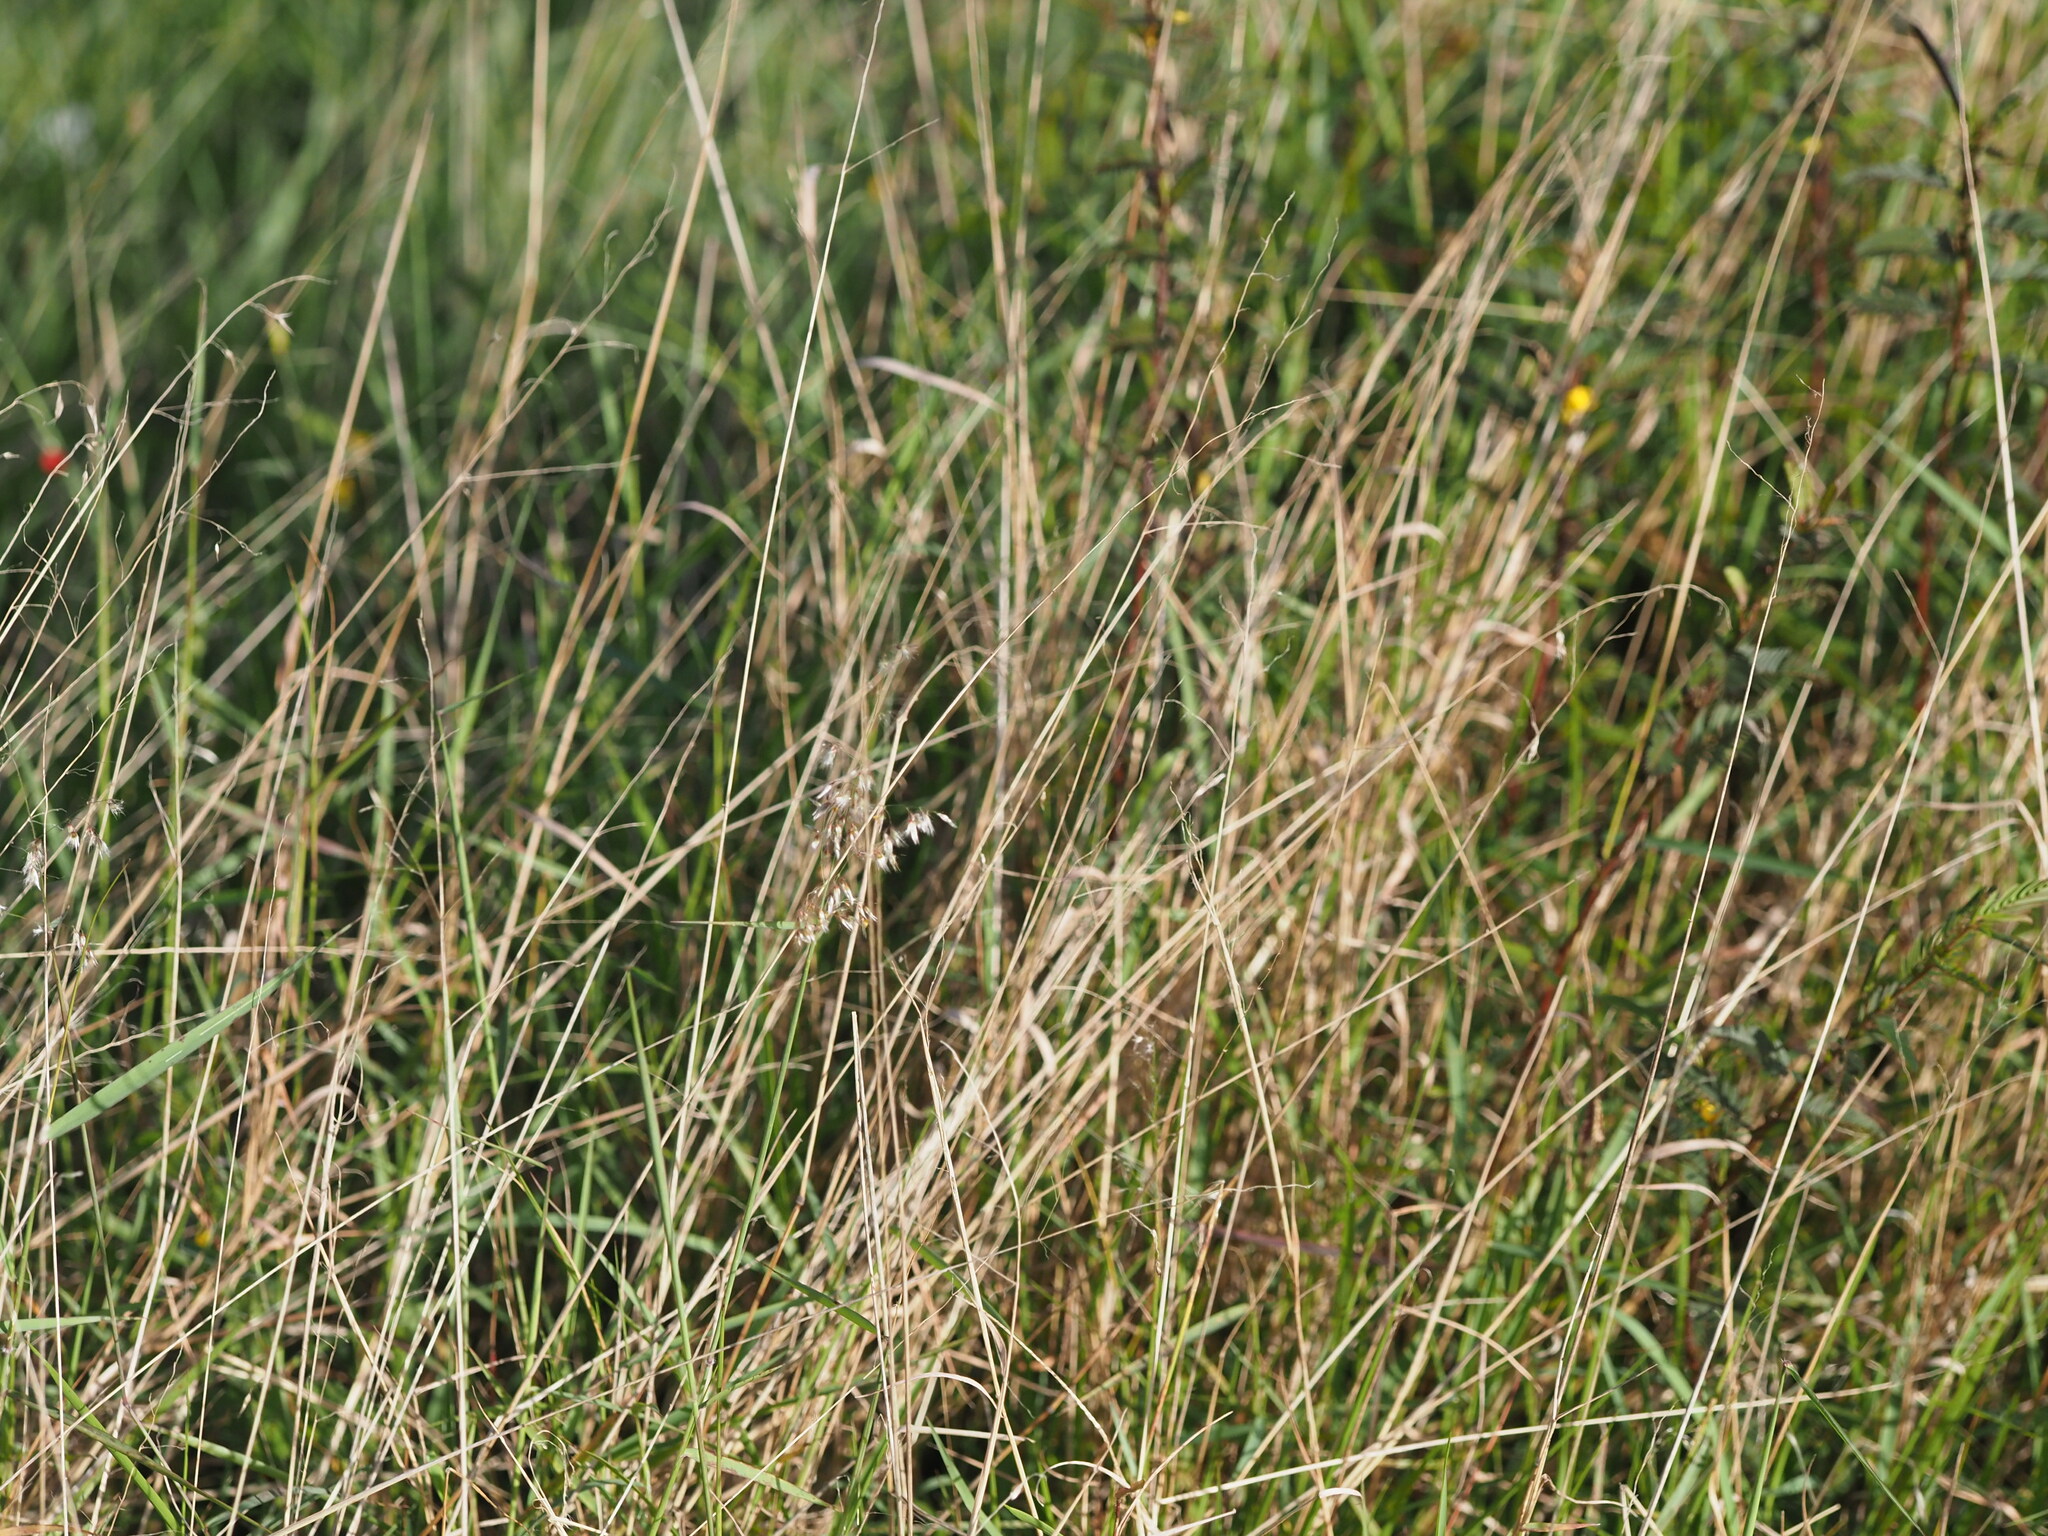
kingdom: Plantae
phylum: Tracheophyta
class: Liliopsida
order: Poales
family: Poaceae
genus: Melinis
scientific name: Melinis repens
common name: Rose natal grass
